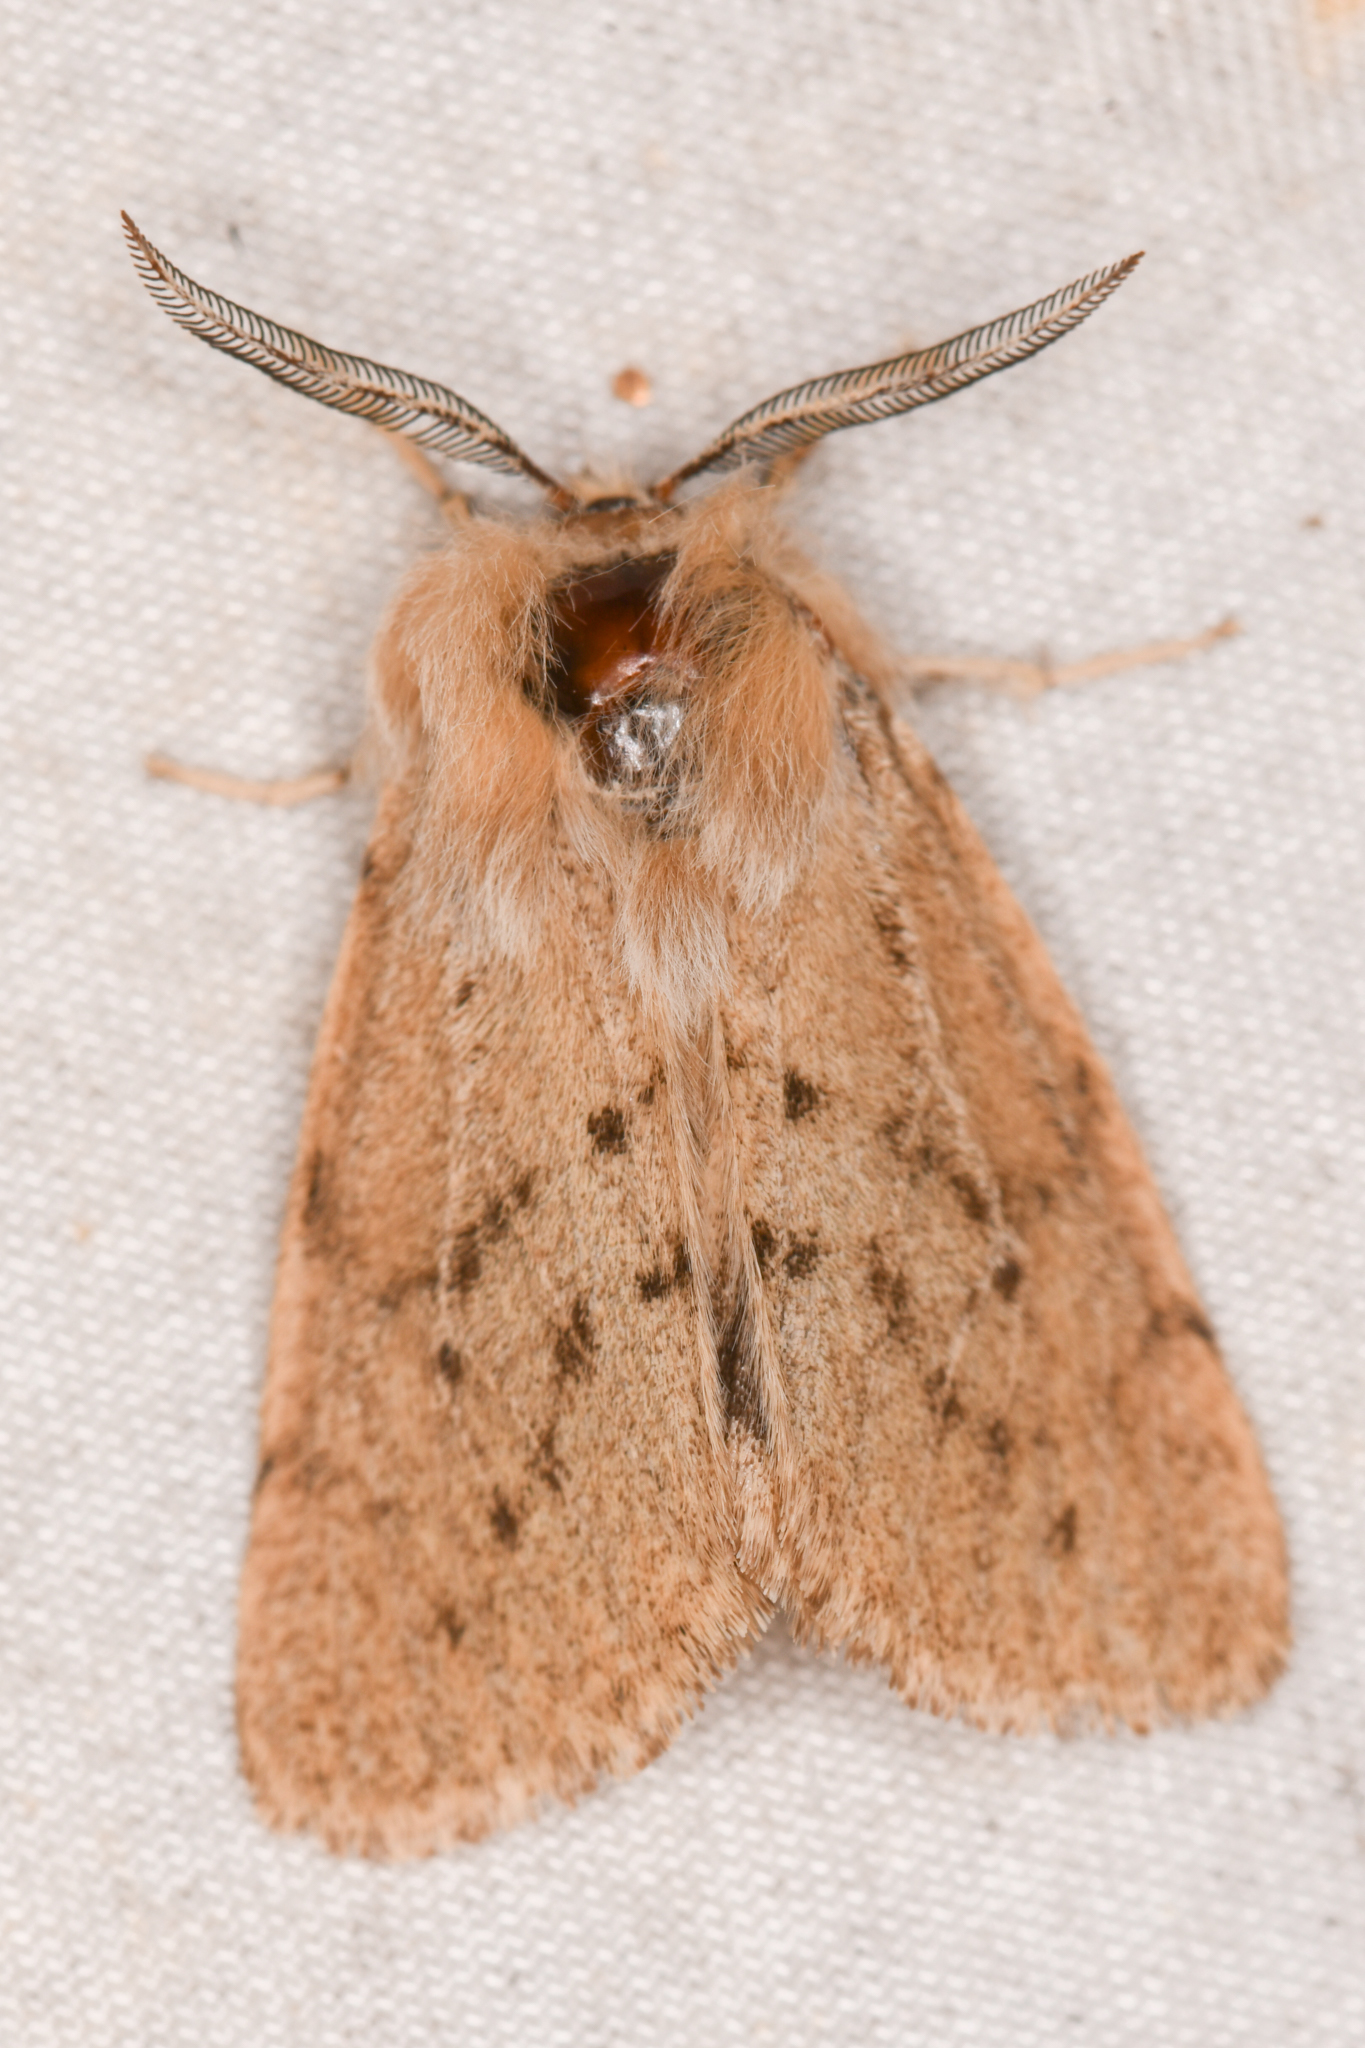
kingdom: Animalia
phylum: Arthropoda
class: Insecta
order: Lepidoptera
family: Erebidae
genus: Spilosoma
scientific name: Spilosoma vagans
